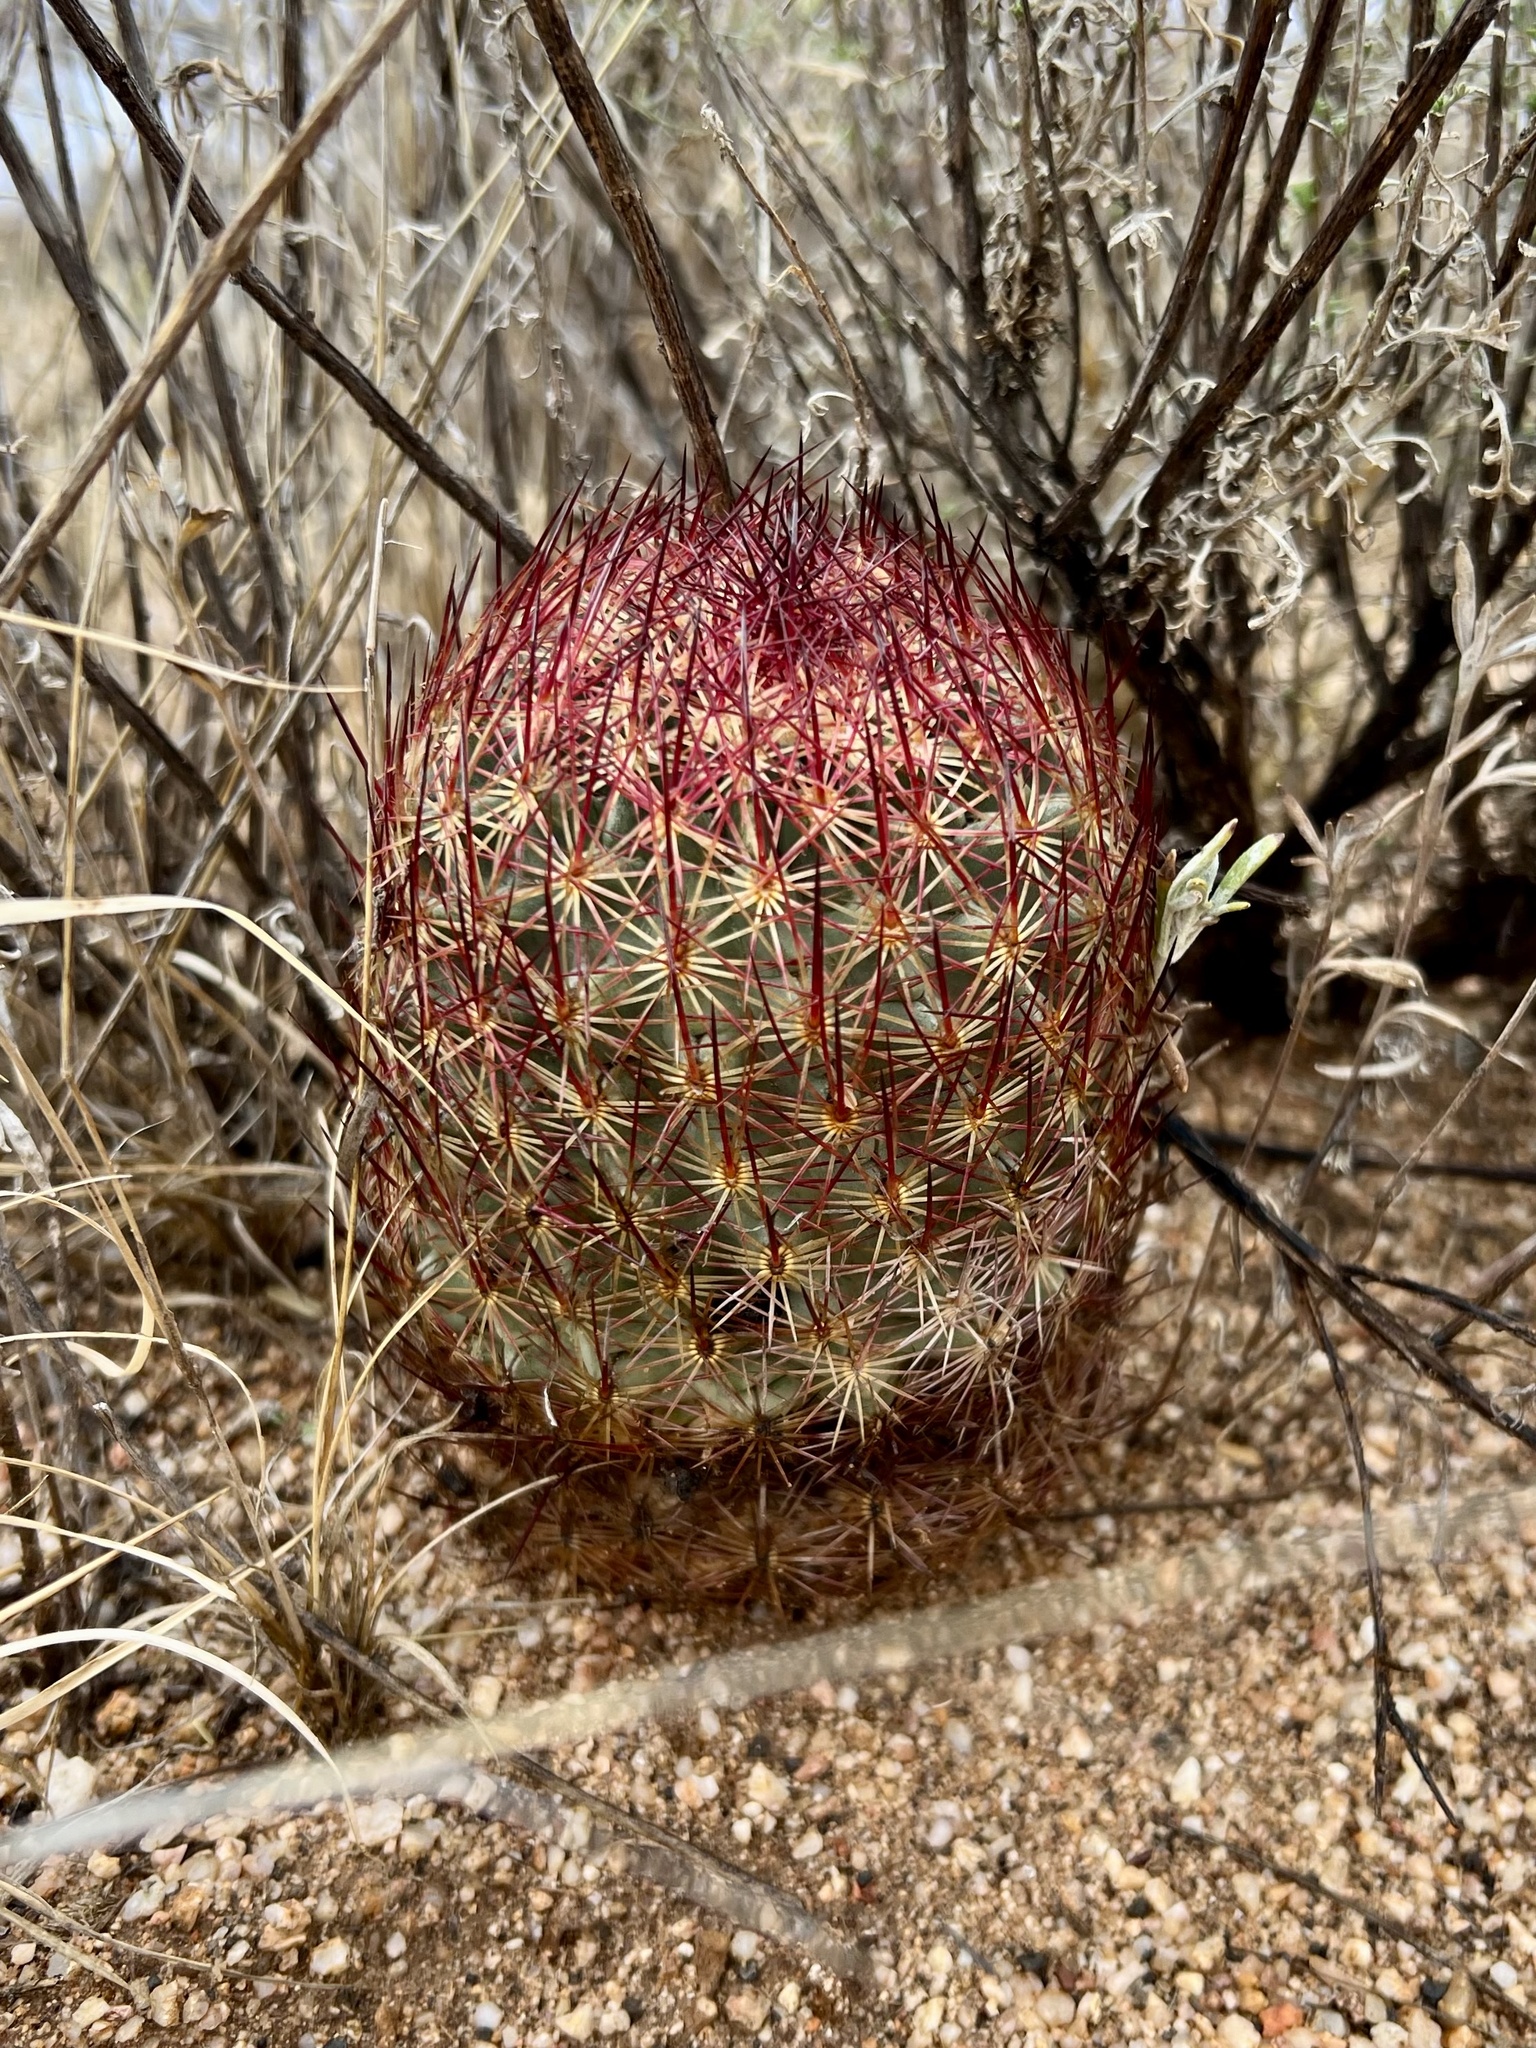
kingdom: Plantae
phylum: Tracheophyta
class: Magnoliopsida
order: Caryophyllales
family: Cactaceae
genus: Sclerocactus
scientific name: Sclerocactus johnsonii
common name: Eight-spine fishhook cactus
